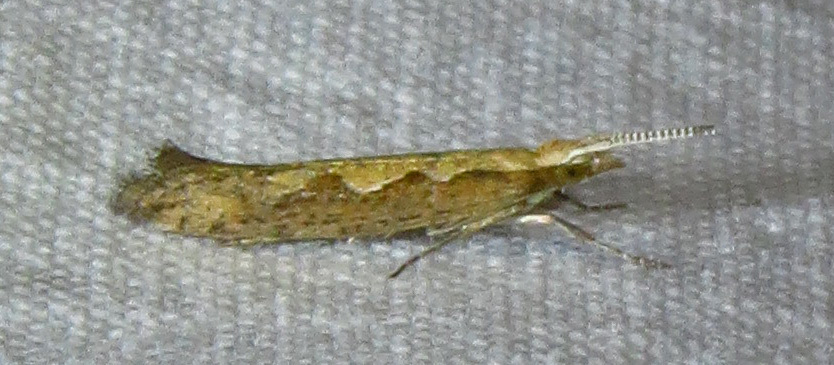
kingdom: Animalia
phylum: Arthropoda
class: Insecta
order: Lepidoptera
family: Plutellidae
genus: Plutella
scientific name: Plutella xylostella
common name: Diamond-back moth
